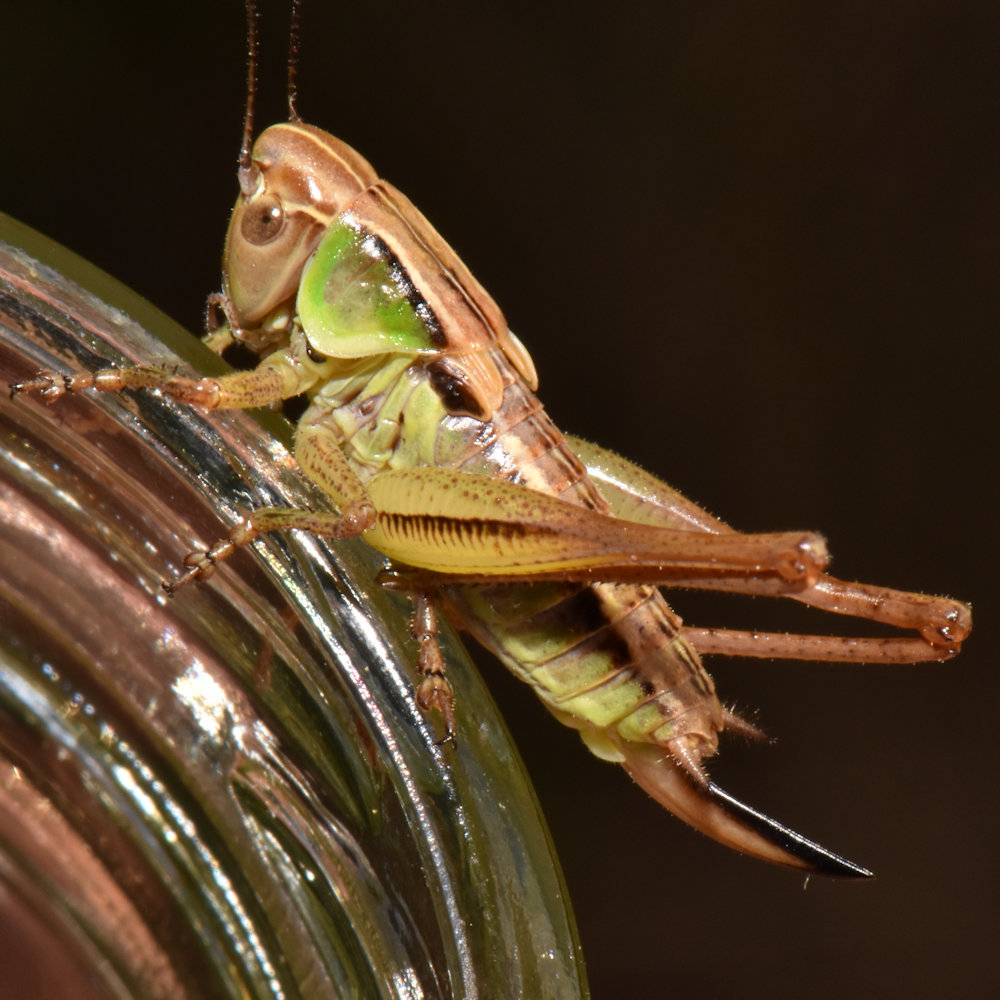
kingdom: Animalia
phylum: Arthropoda
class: Insecta
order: Orthoptera
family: Tettigoniidae
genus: Roeseliana
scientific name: Roeseliana roeselii
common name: Roesel's bush cricket
